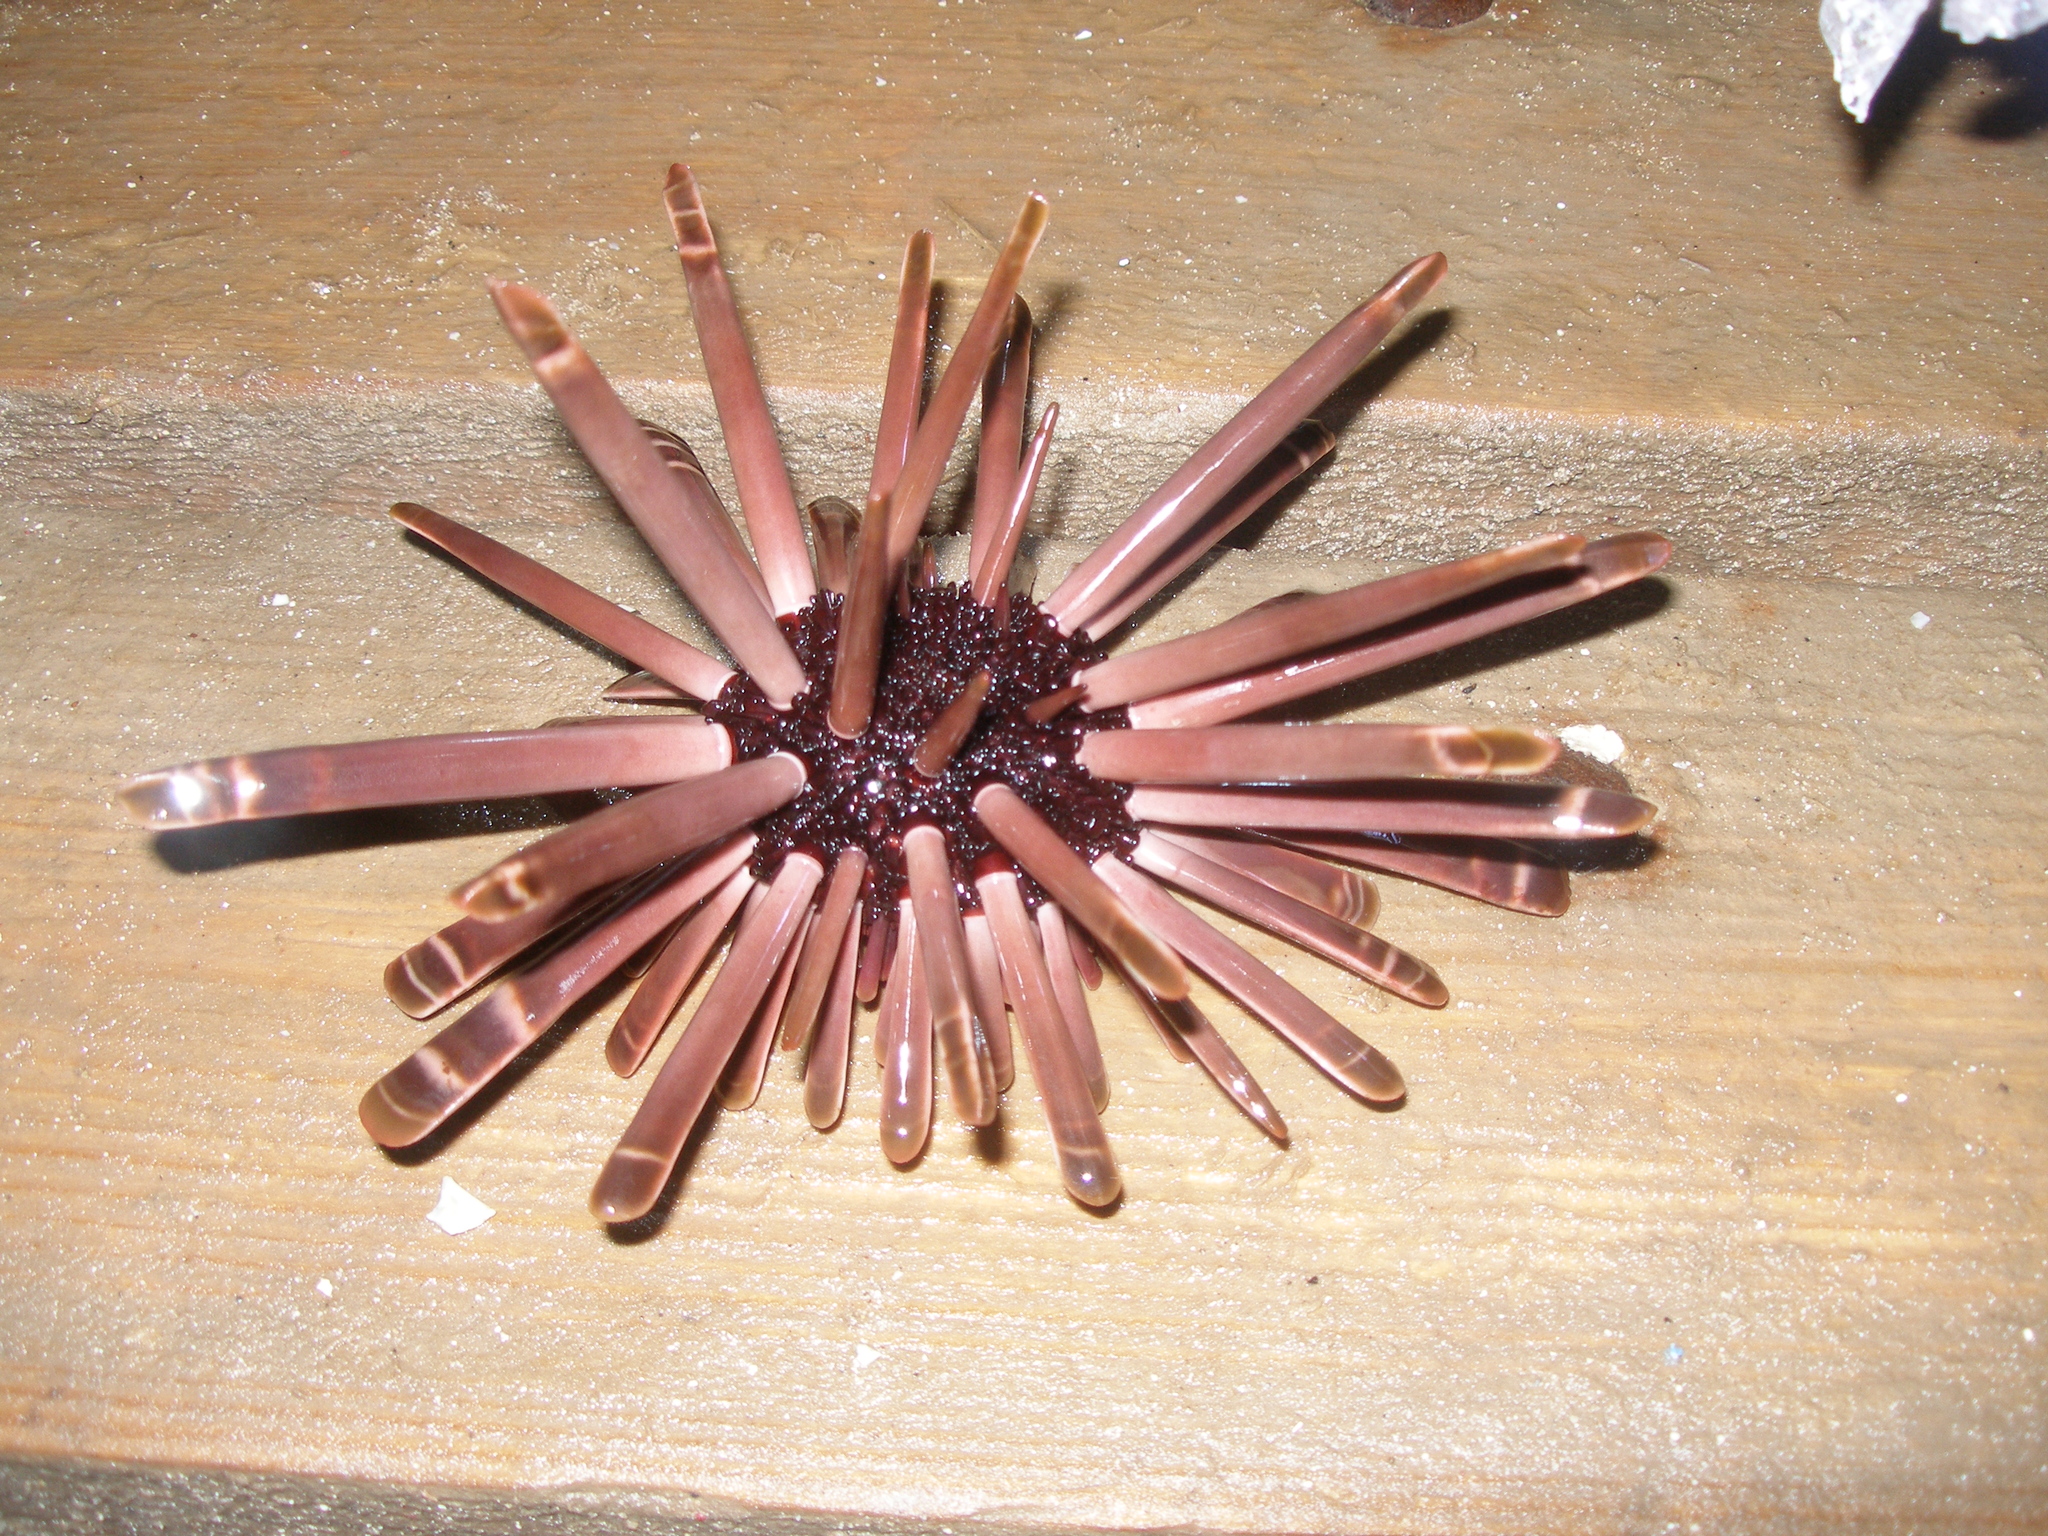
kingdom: Animalia
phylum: Echinodermata
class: Echinoidea
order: Camarodonta
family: Echinometridae
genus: Heterocentrotus
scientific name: Heterocentrotus mamillatus
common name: Slate pencil urchin
